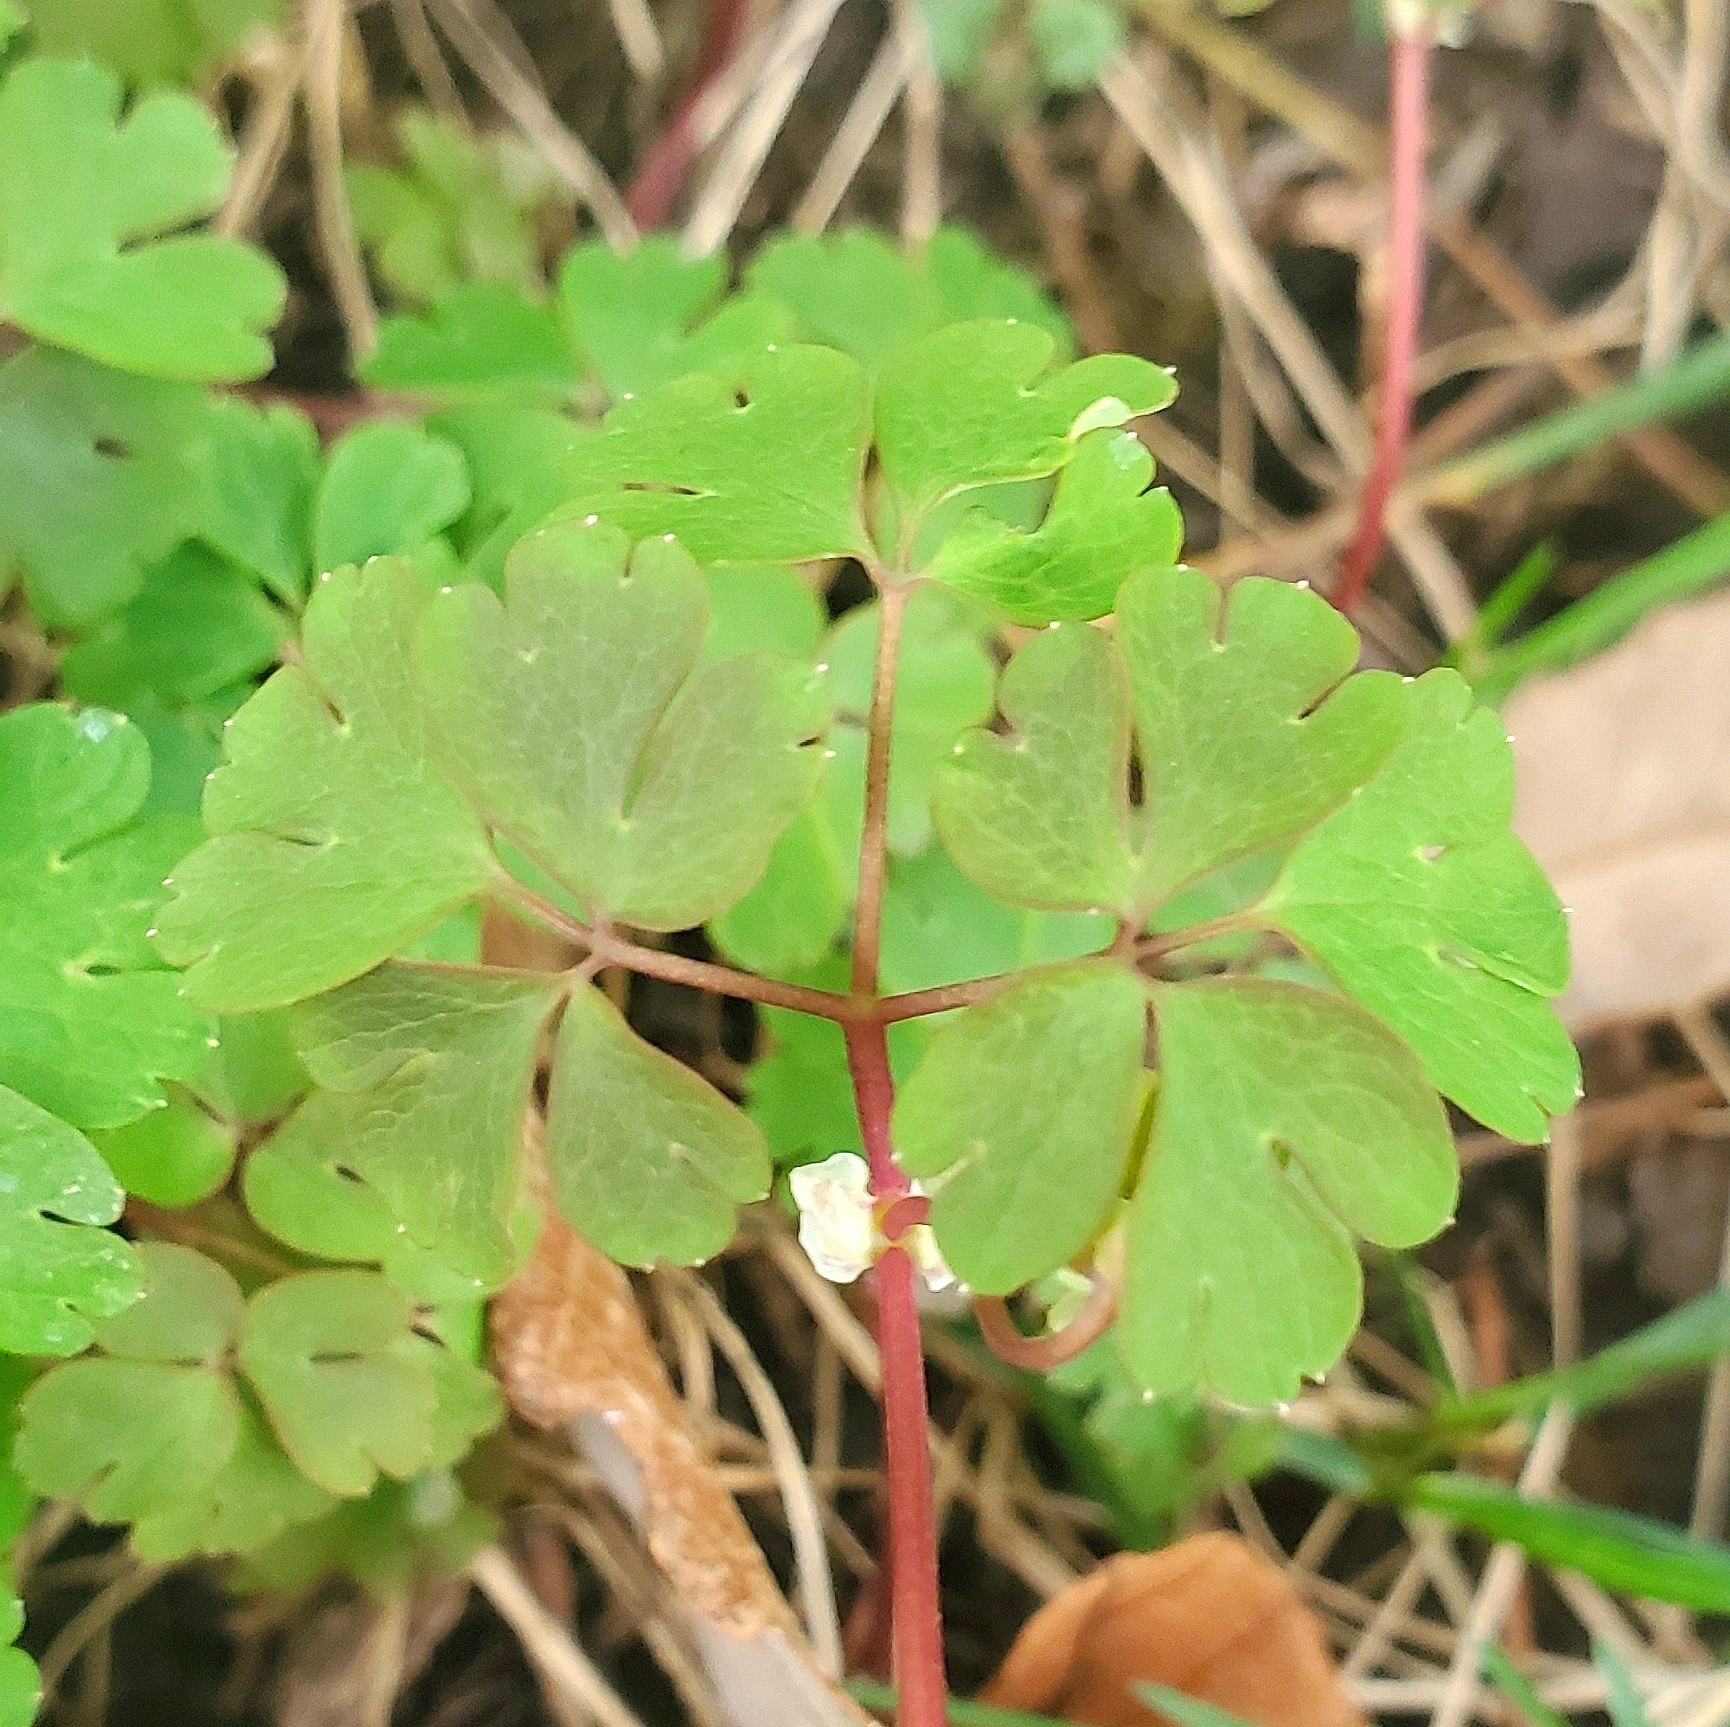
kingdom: Plantae
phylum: Tracheophyta
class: Magnoliopsida
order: Ranunculales
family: Ranunculaceae
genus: Enemion
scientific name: Enemion biternatum
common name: Eastern false rue-anemone
